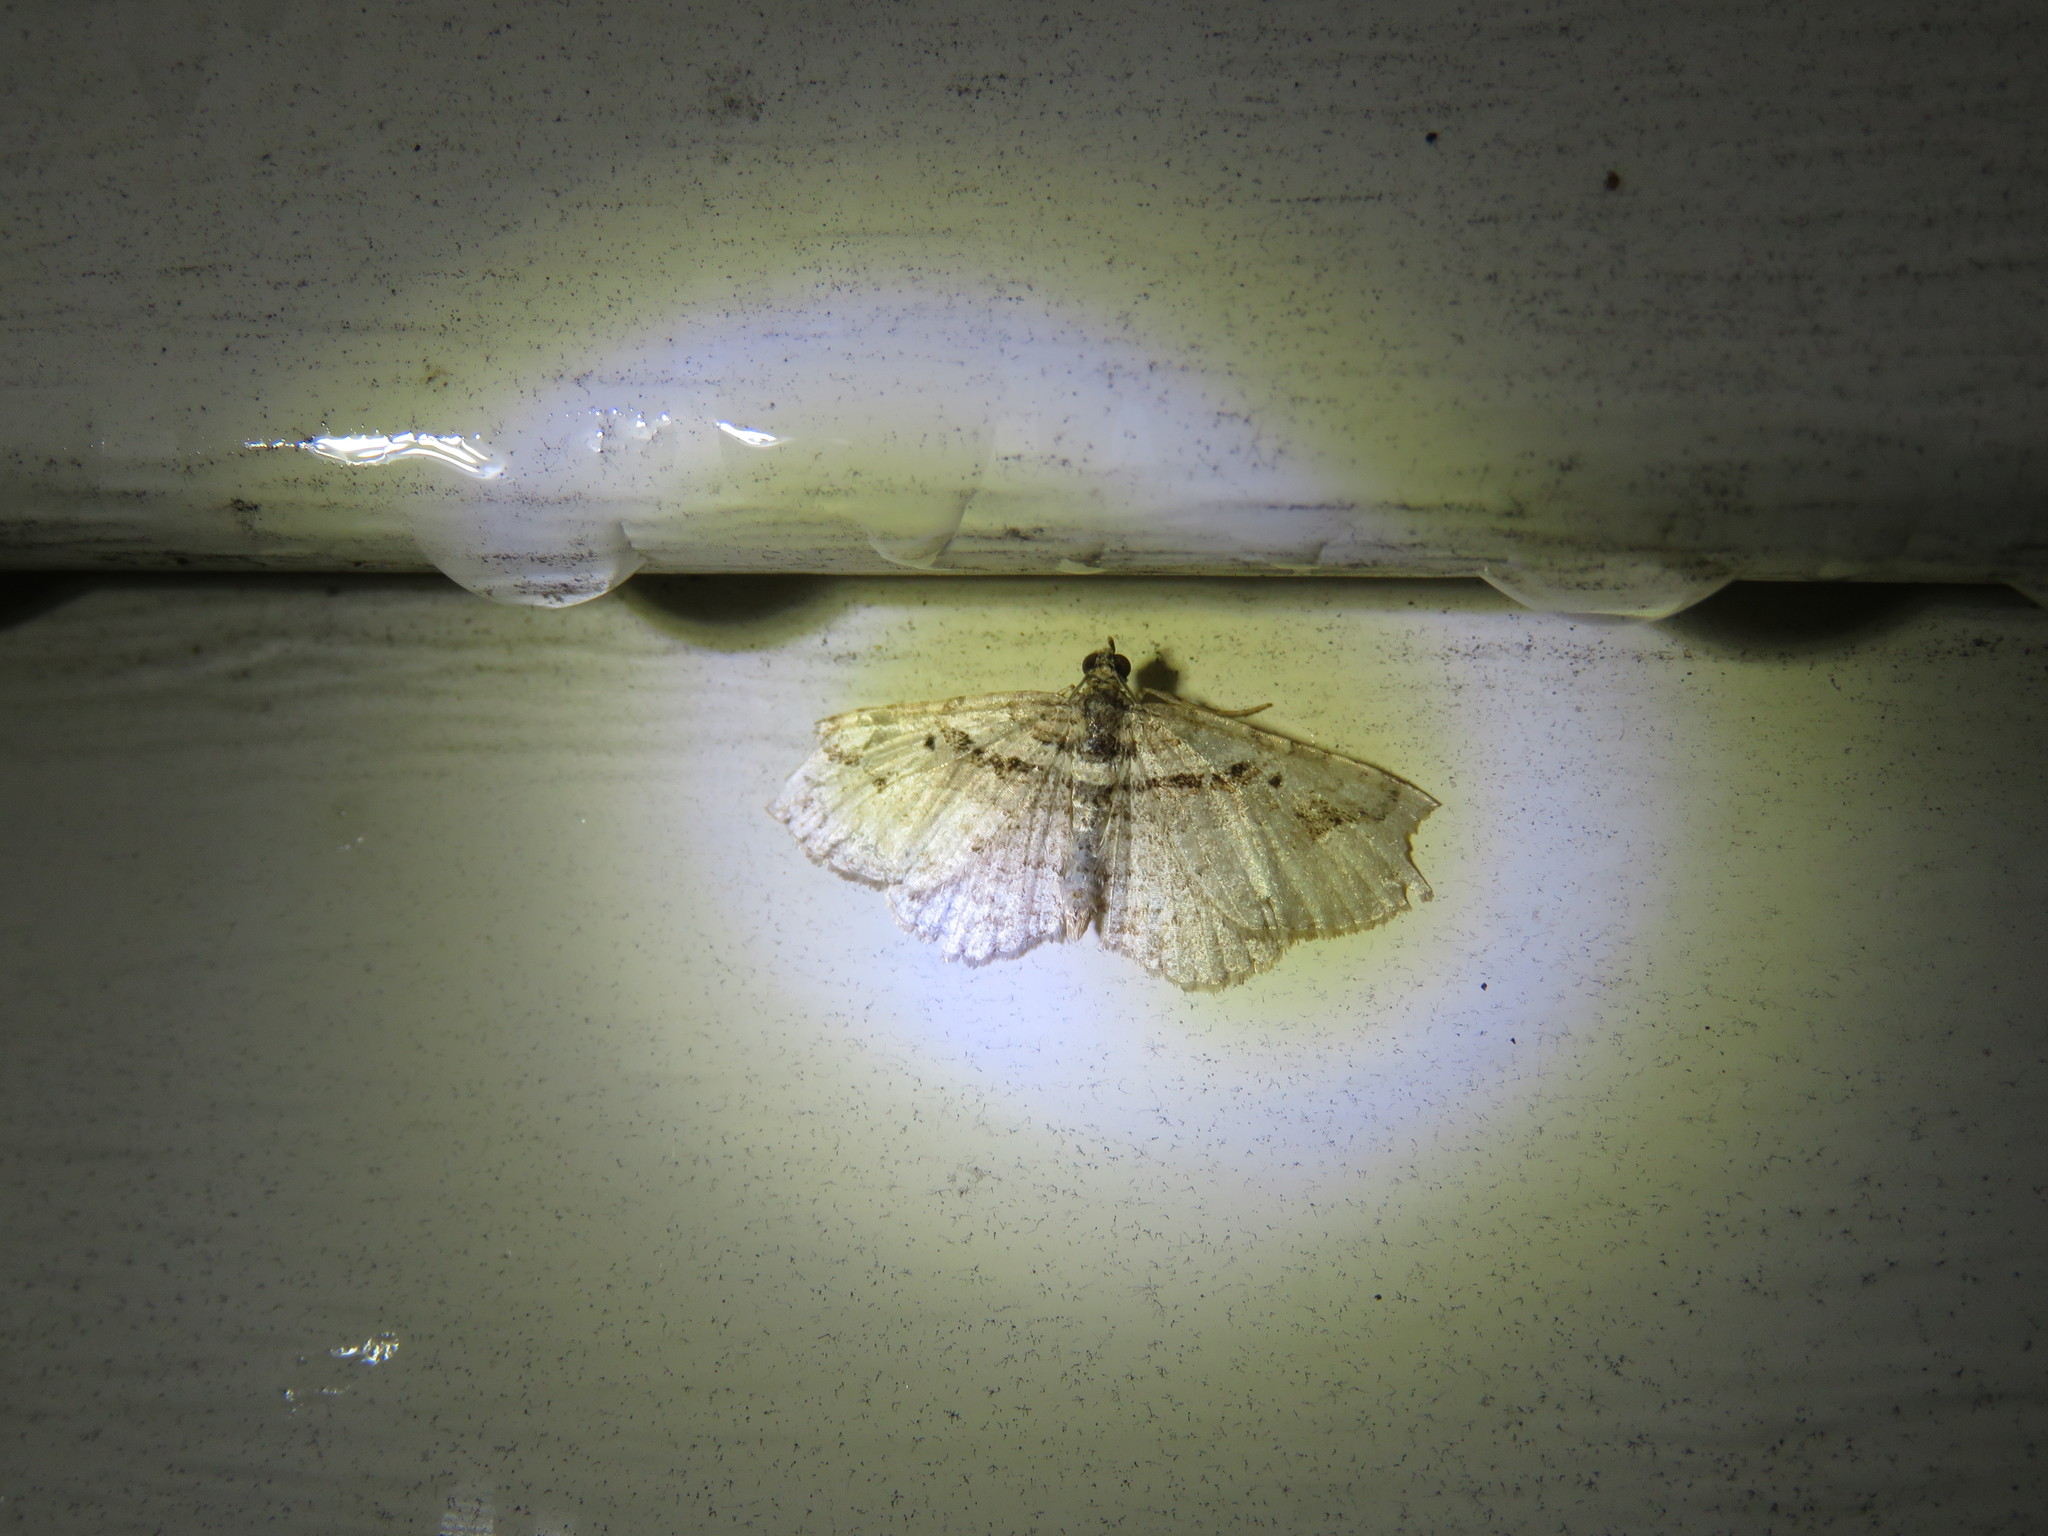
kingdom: Animalia
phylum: Arthropoda
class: Insecta
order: Lepidoptera
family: Geometridae
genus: Costaconvexa
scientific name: Costaconvexa centrostrigaria
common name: Bent-line carpet
